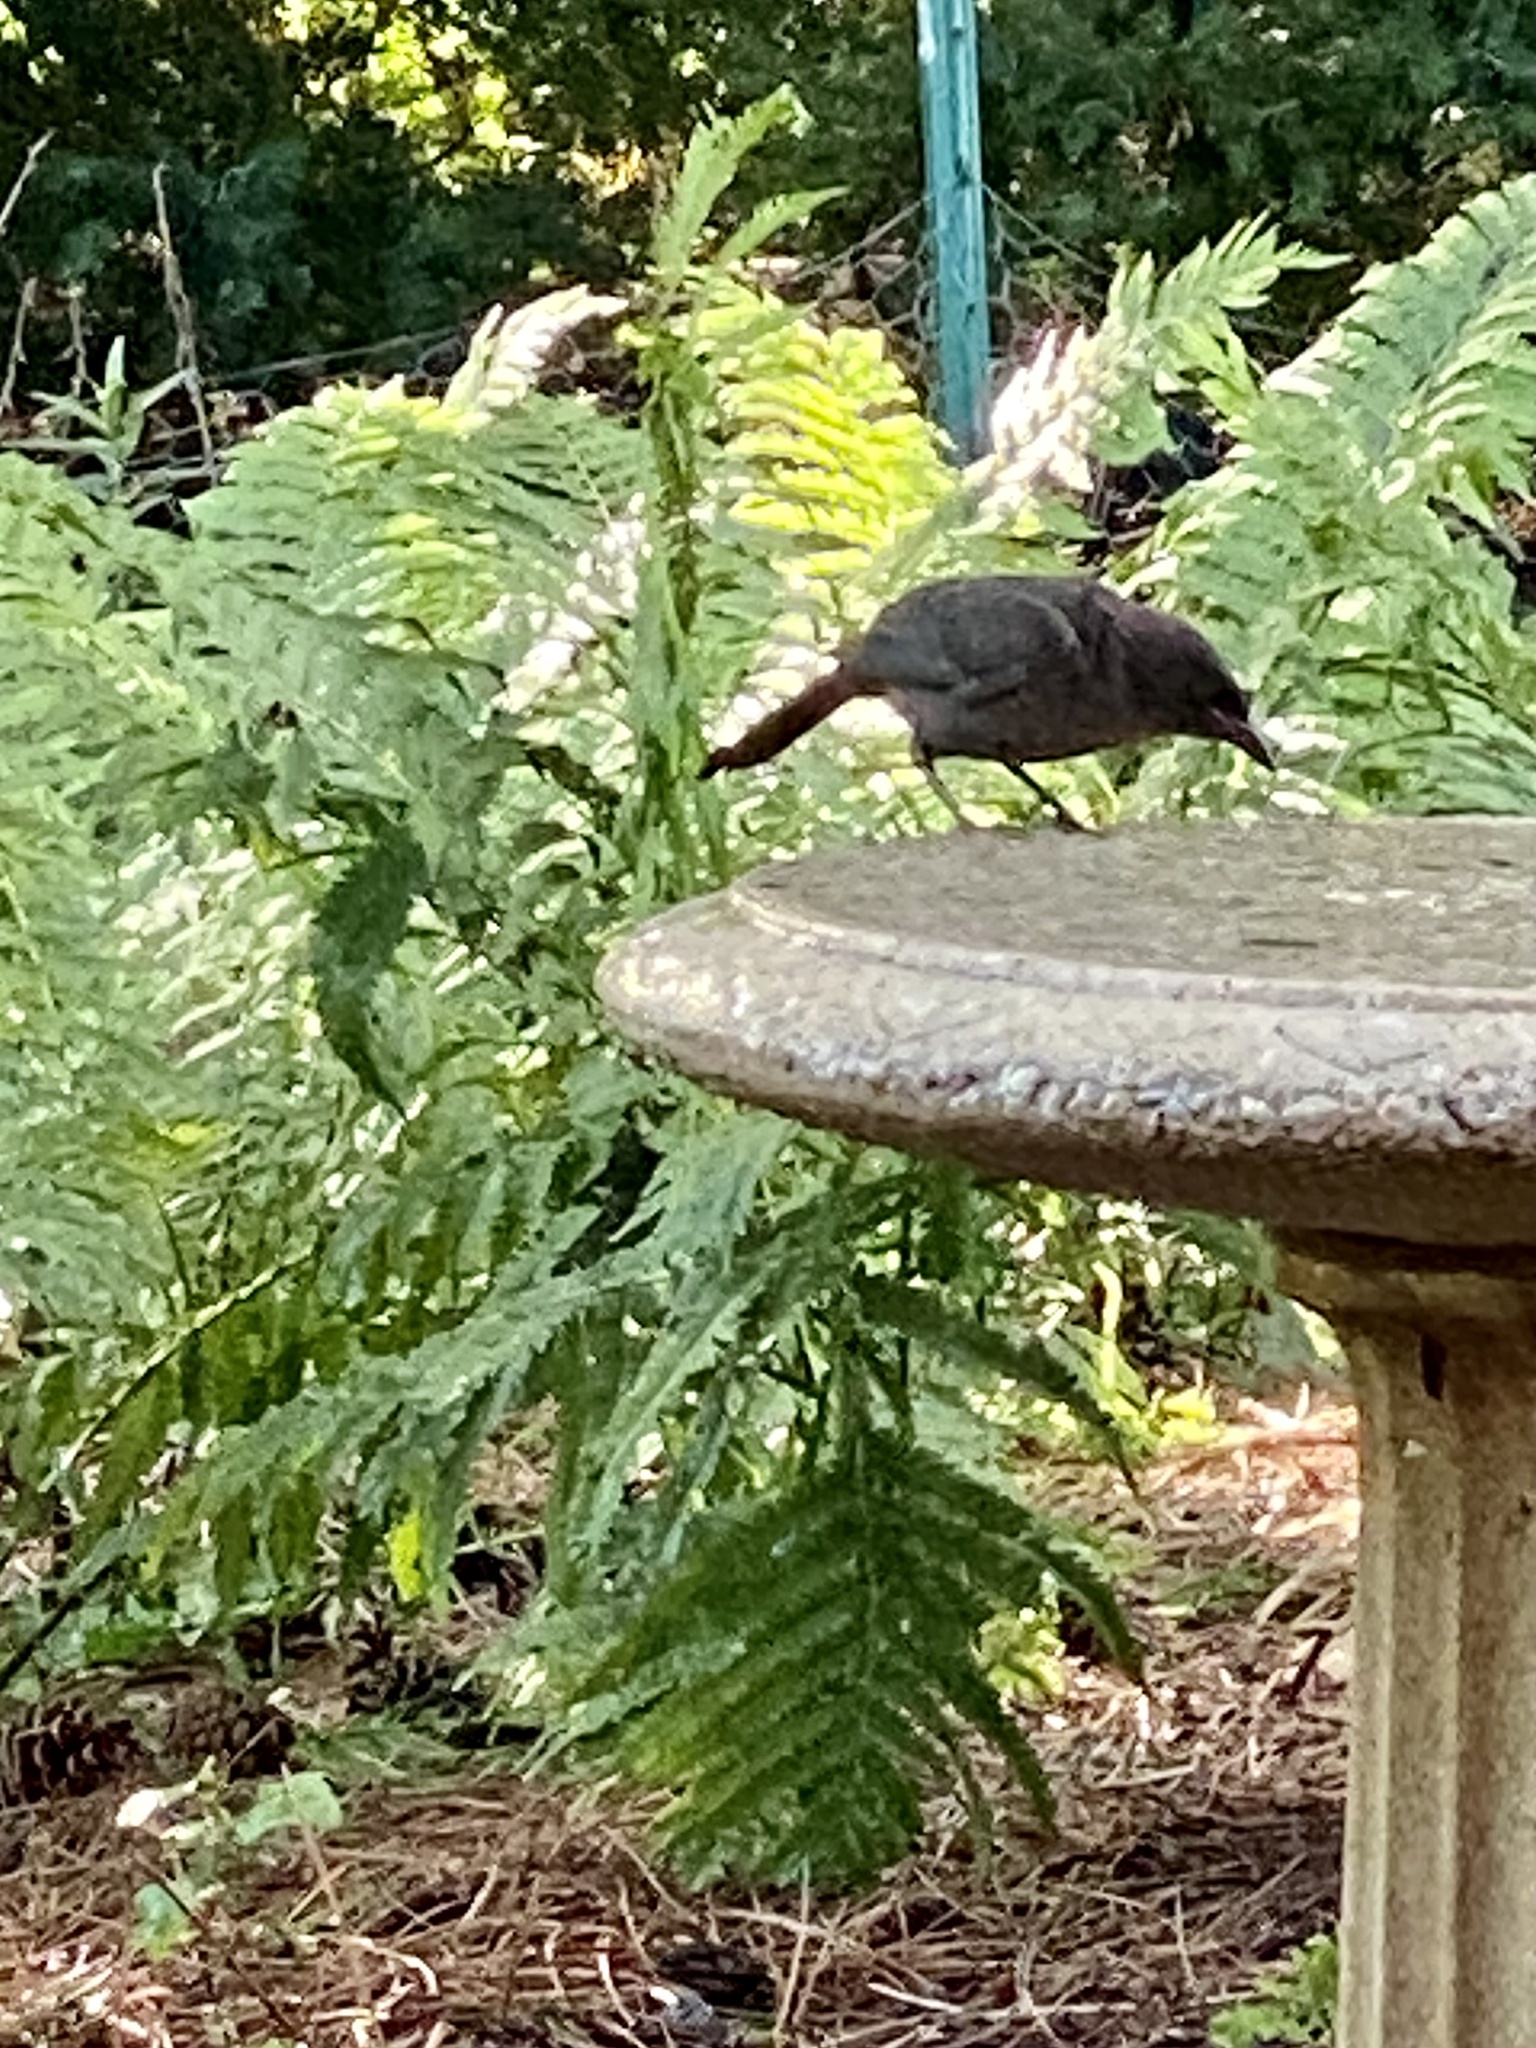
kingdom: Animalia
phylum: Chordata
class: Aves
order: Passeriformes
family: Icteridae
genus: Quiscalus
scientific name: Quiscalus quiscula
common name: Common grackle
